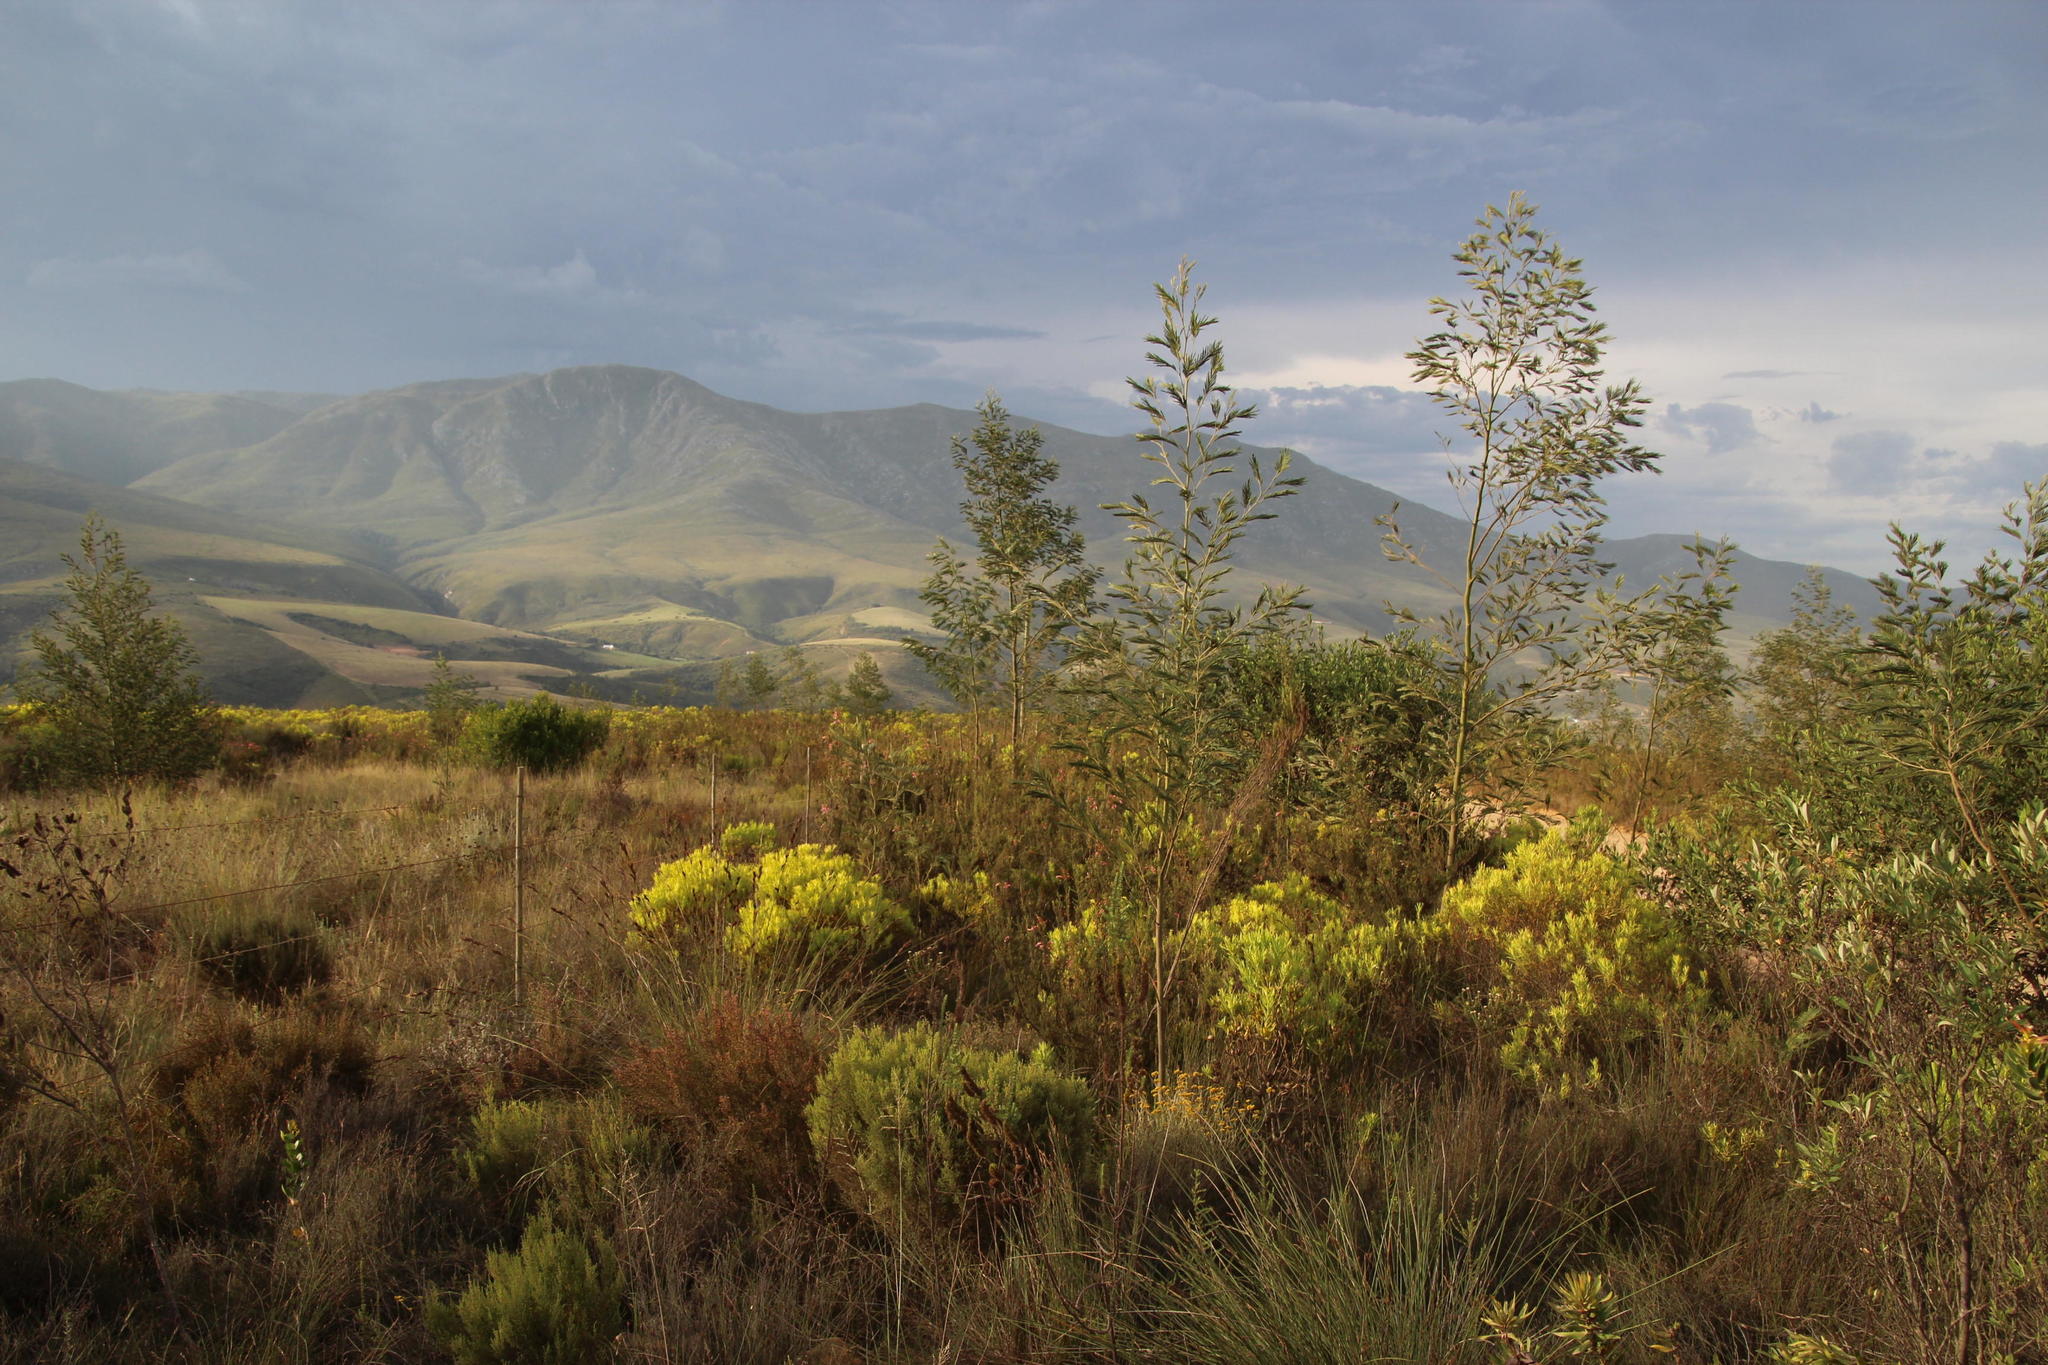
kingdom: Plantae
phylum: Tracheophyta
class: Magnoliopsida
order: Fabales
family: Fabaceae
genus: Acacia
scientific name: Acacia mearnsii
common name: Black wattle
